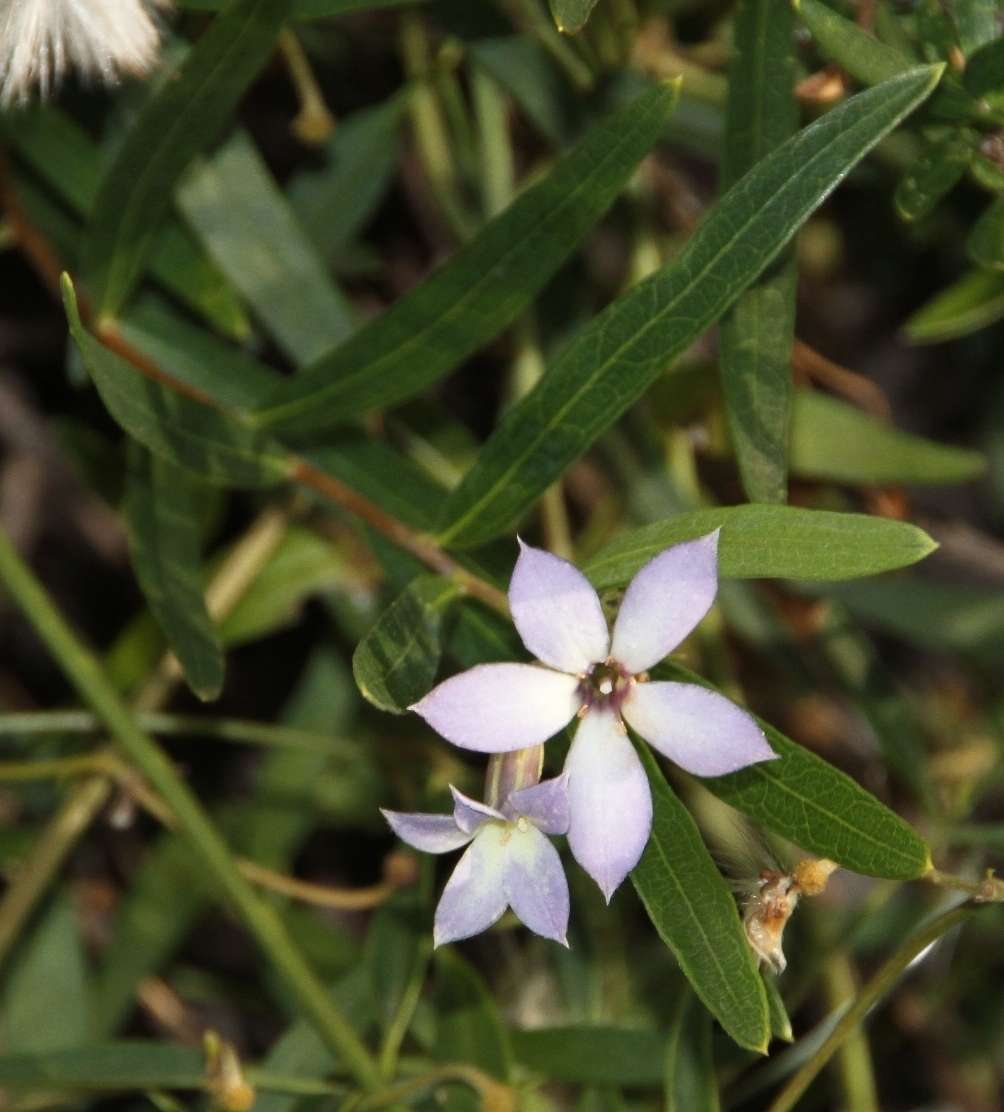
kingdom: Plantae
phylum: Tracheophyta
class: Magnoliopsida
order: Apiales
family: Pittosporaceae
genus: Billardiera
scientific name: Billardiera cymosa
